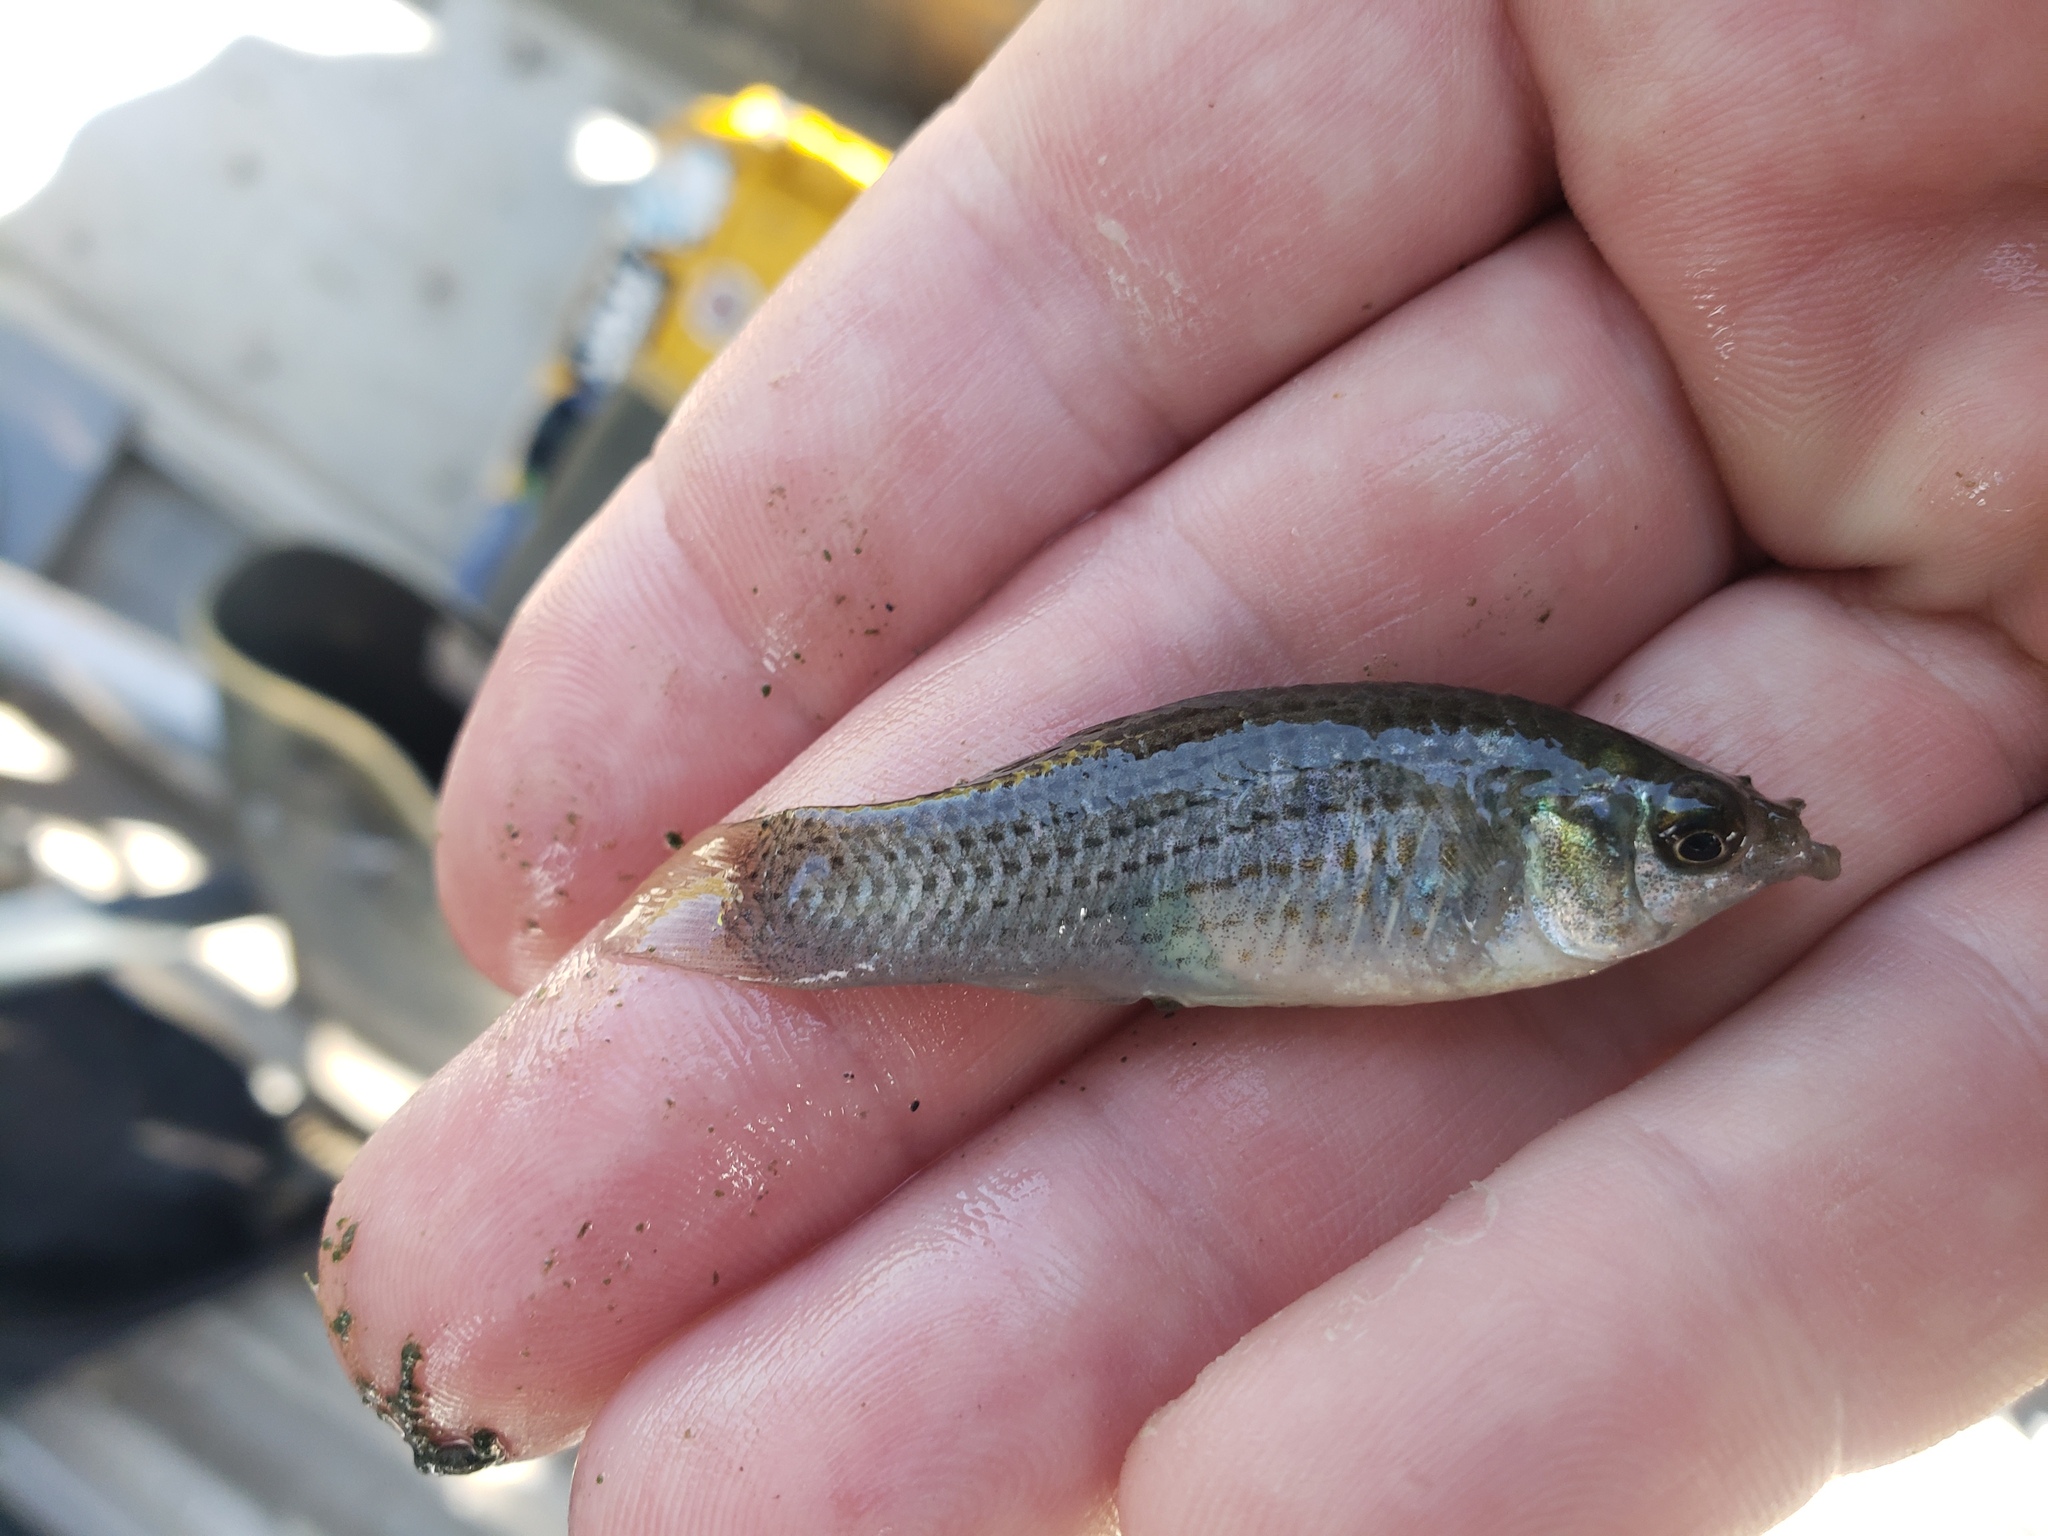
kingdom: Animalia
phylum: Chordata
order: Cyprinodontiformes
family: Poeciliidae
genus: Poecilia
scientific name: Poecilia latipinna
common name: Sailfin molly
